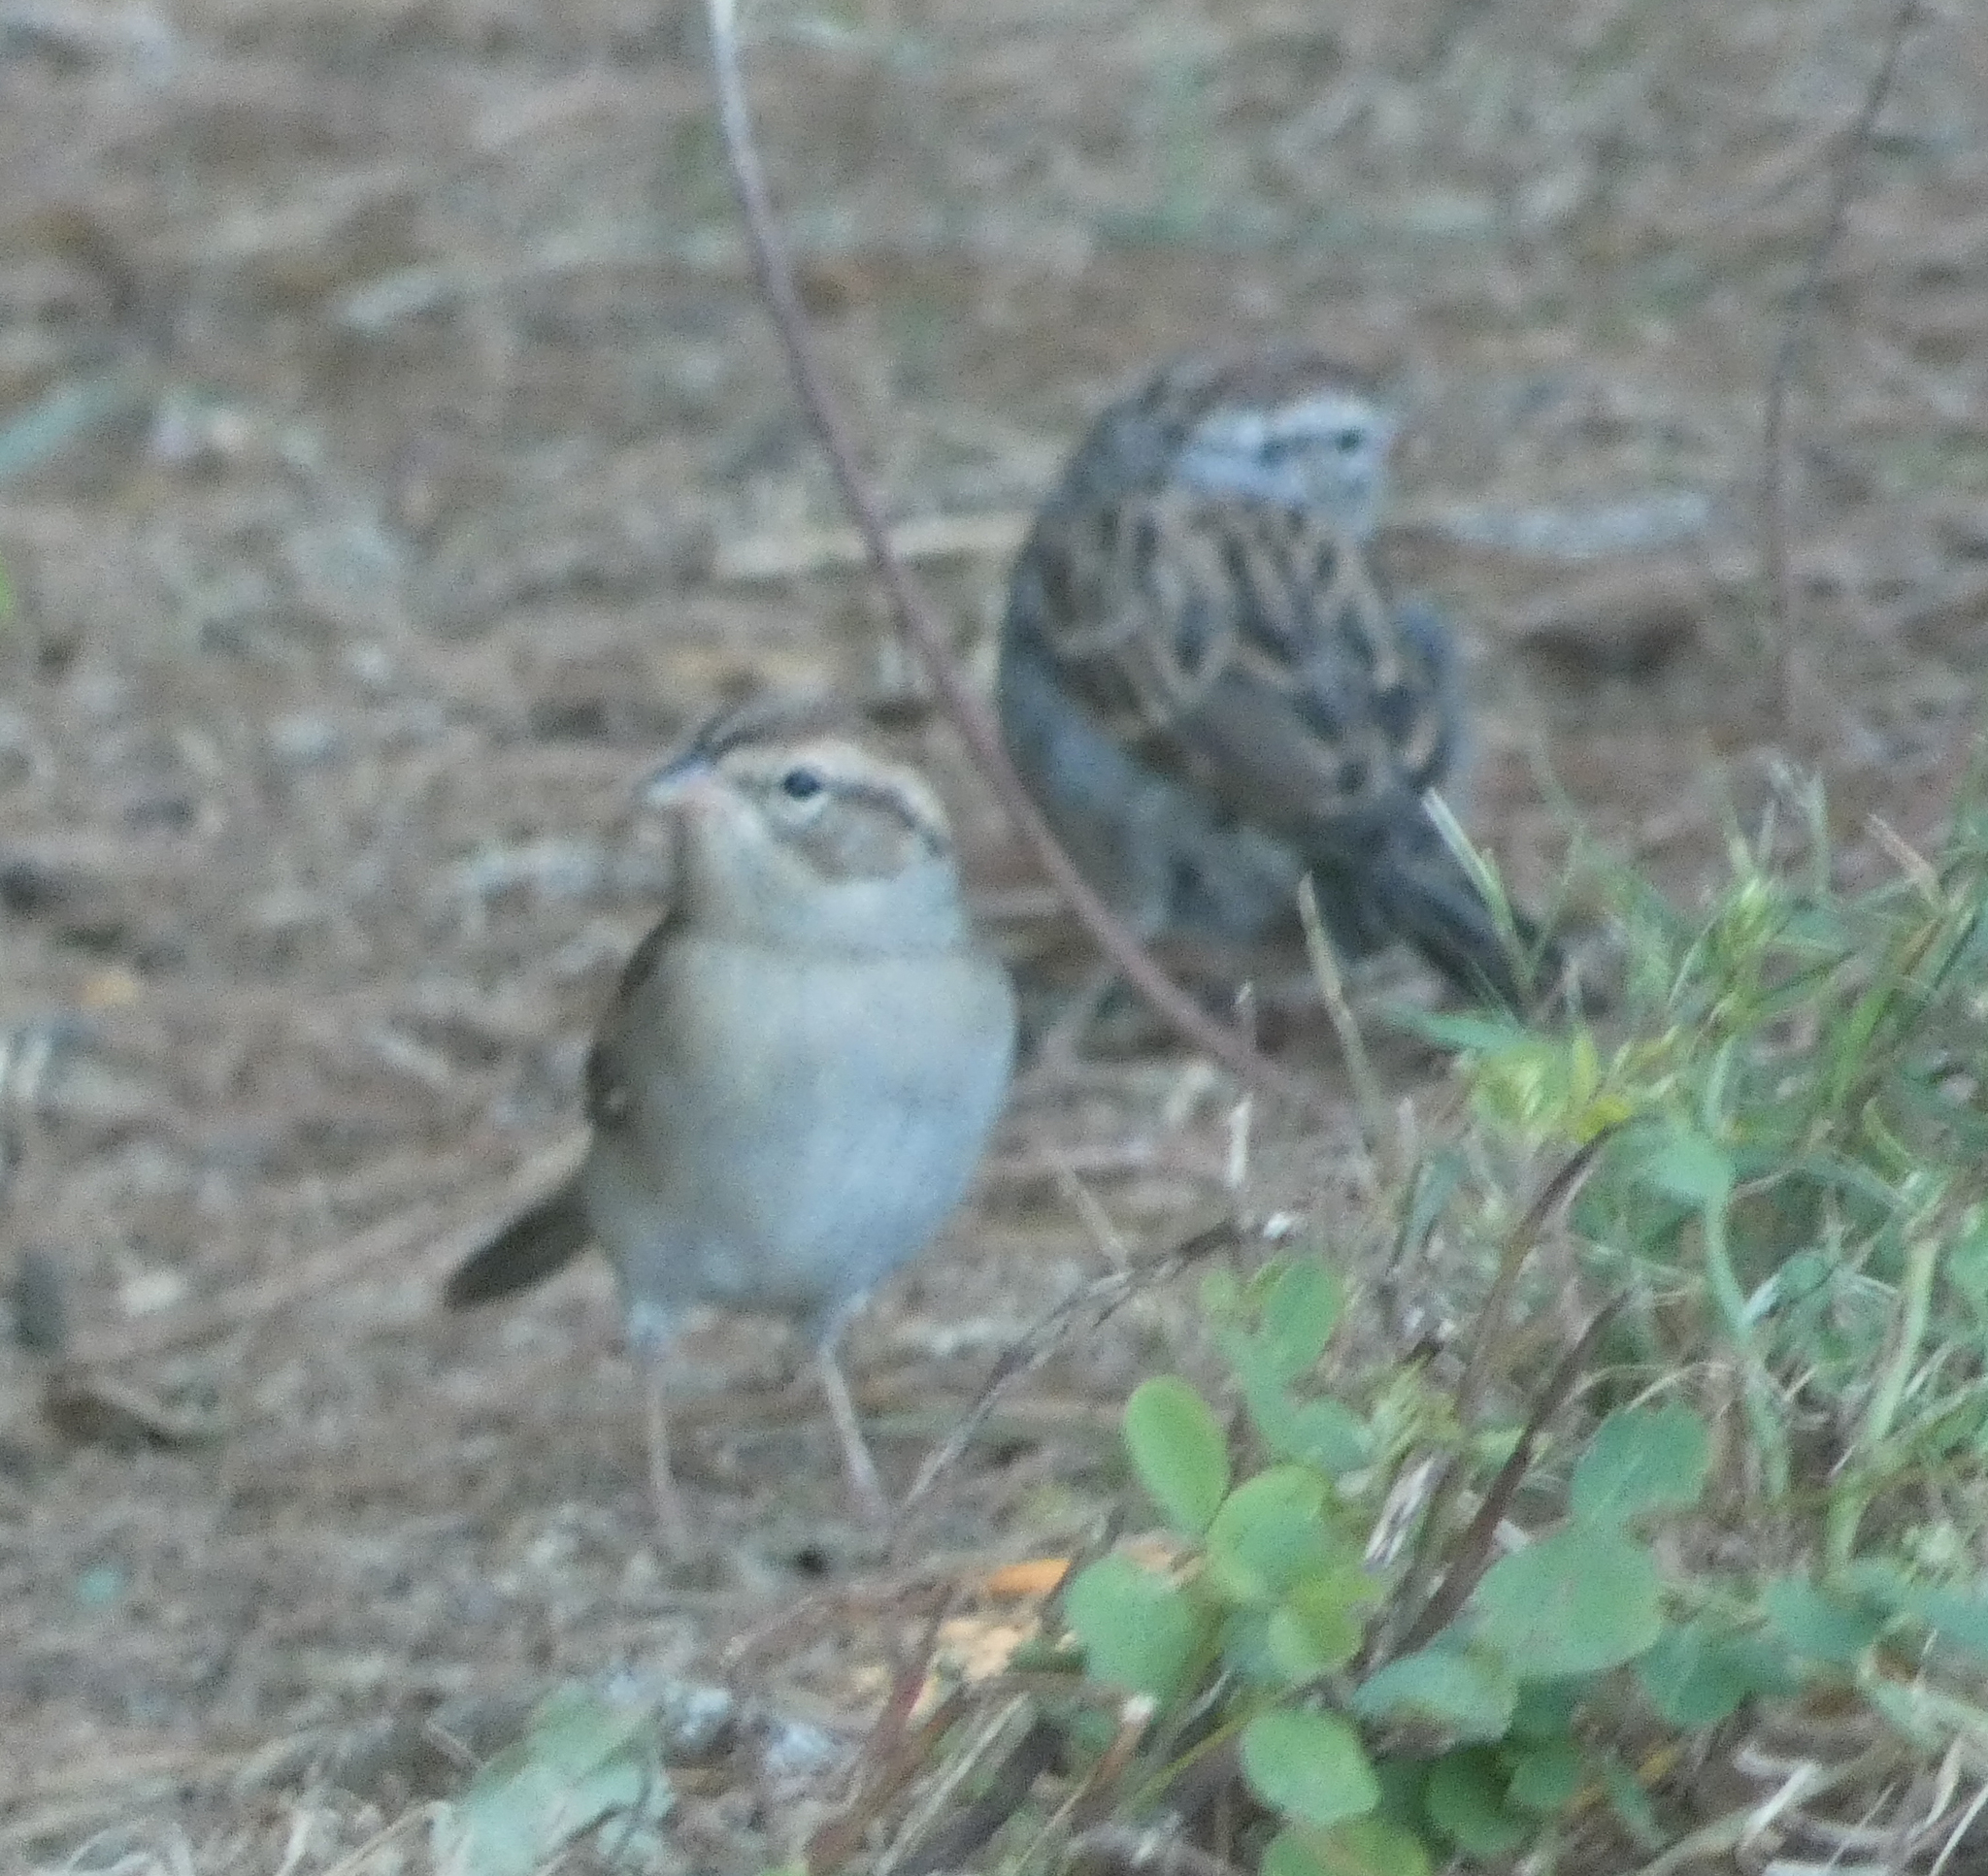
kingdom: Animalia
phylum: Chordata
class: Aves
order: Passeriformes
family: Passerellidae
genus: Spizella
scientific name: Spizella passerina
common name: Chipping sparrow
